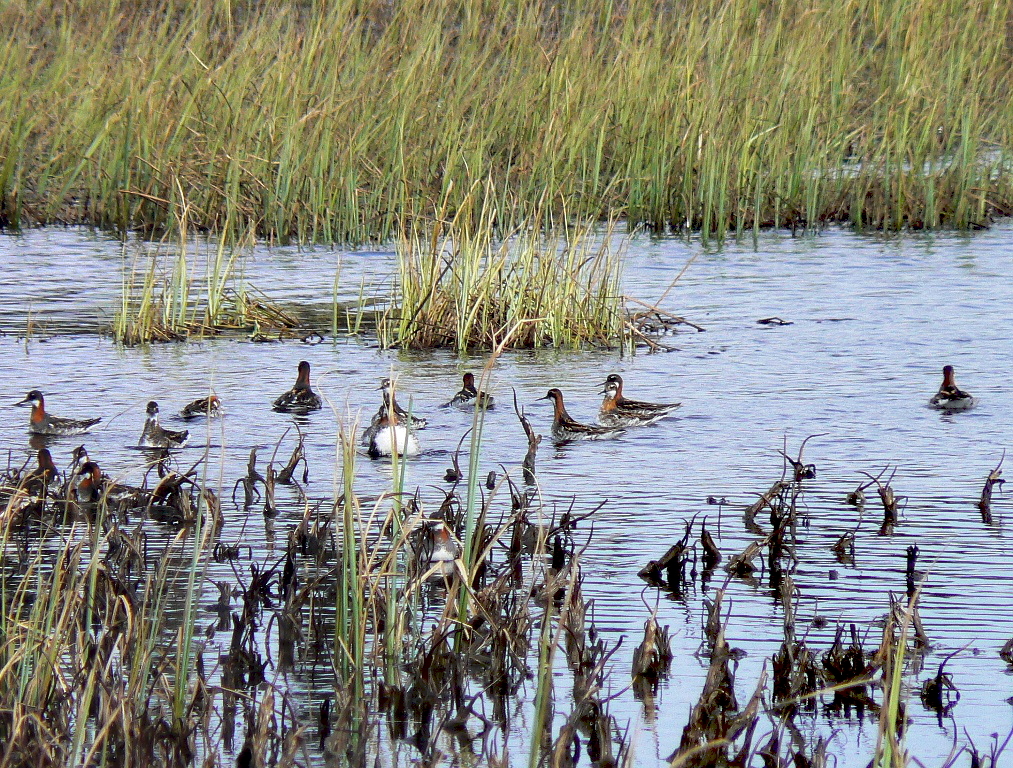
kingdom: Animalia
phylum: Chordata
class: Aves
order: Charadriiformes
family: Scolopacidae
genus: Phalaropus
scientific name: Phalaropus lobatus
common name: Red-necked phalarope
